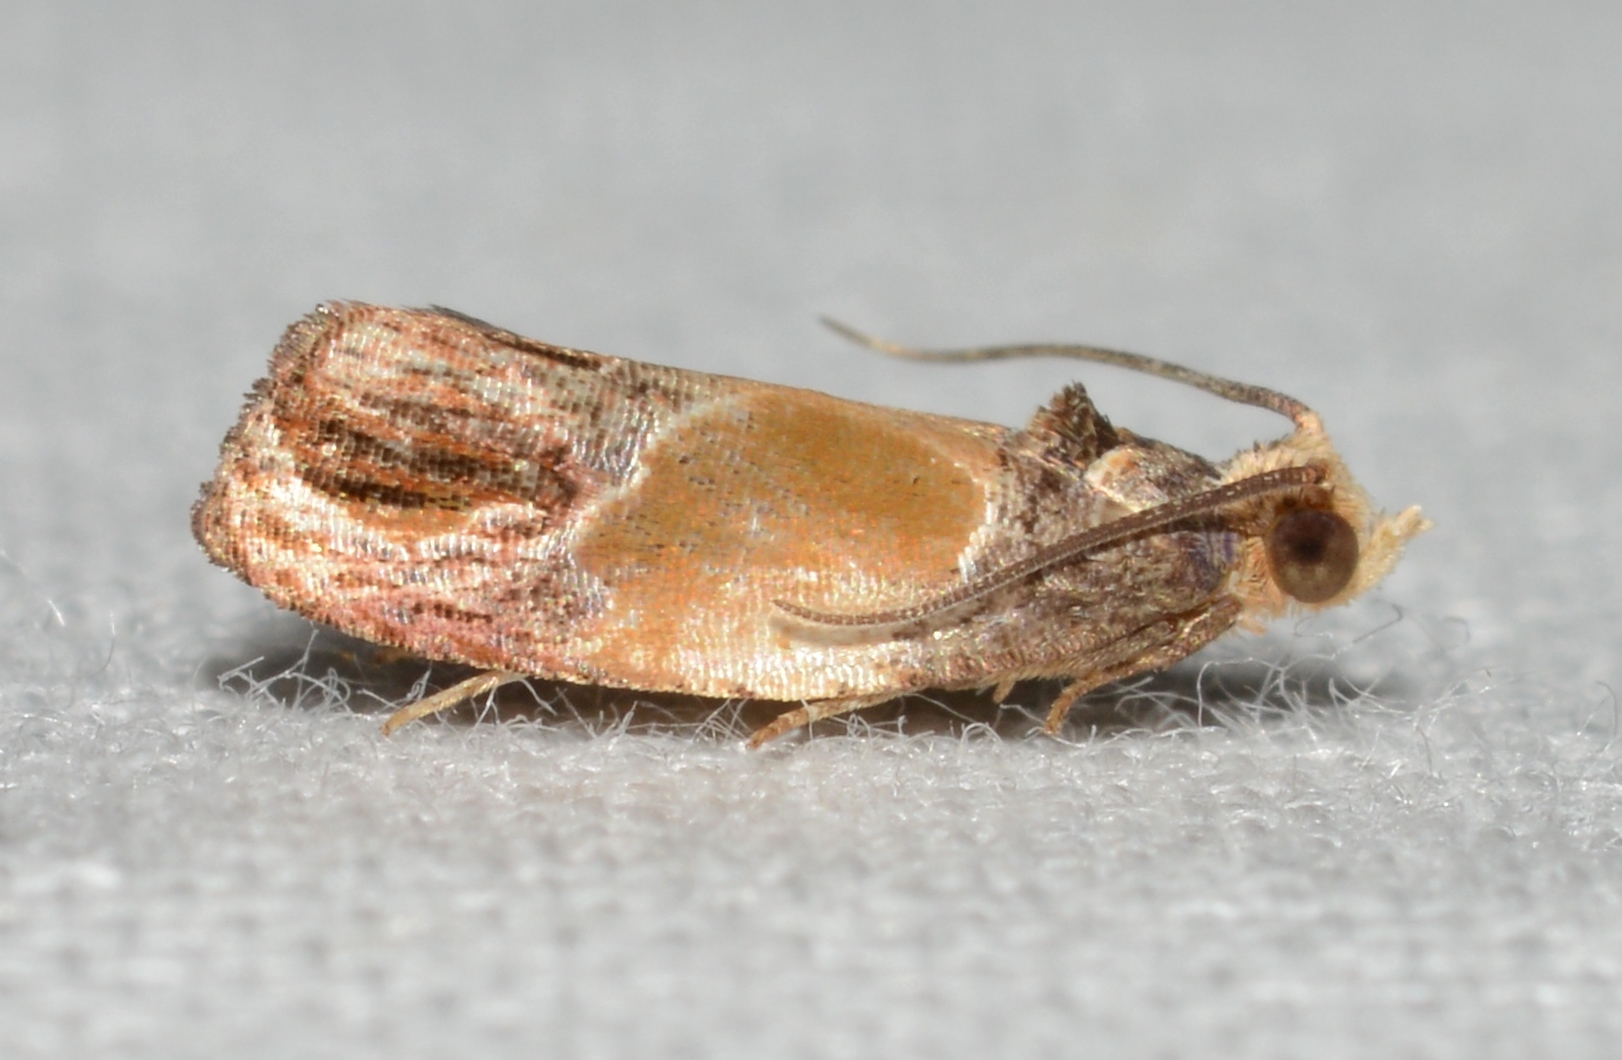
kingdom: Animalia
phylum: Arthropoda
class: Insecta
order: Lepidoptera
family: Tortricidae
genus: Eumarozia
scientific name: Eumarozia malachitana
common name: Sculptured moth
